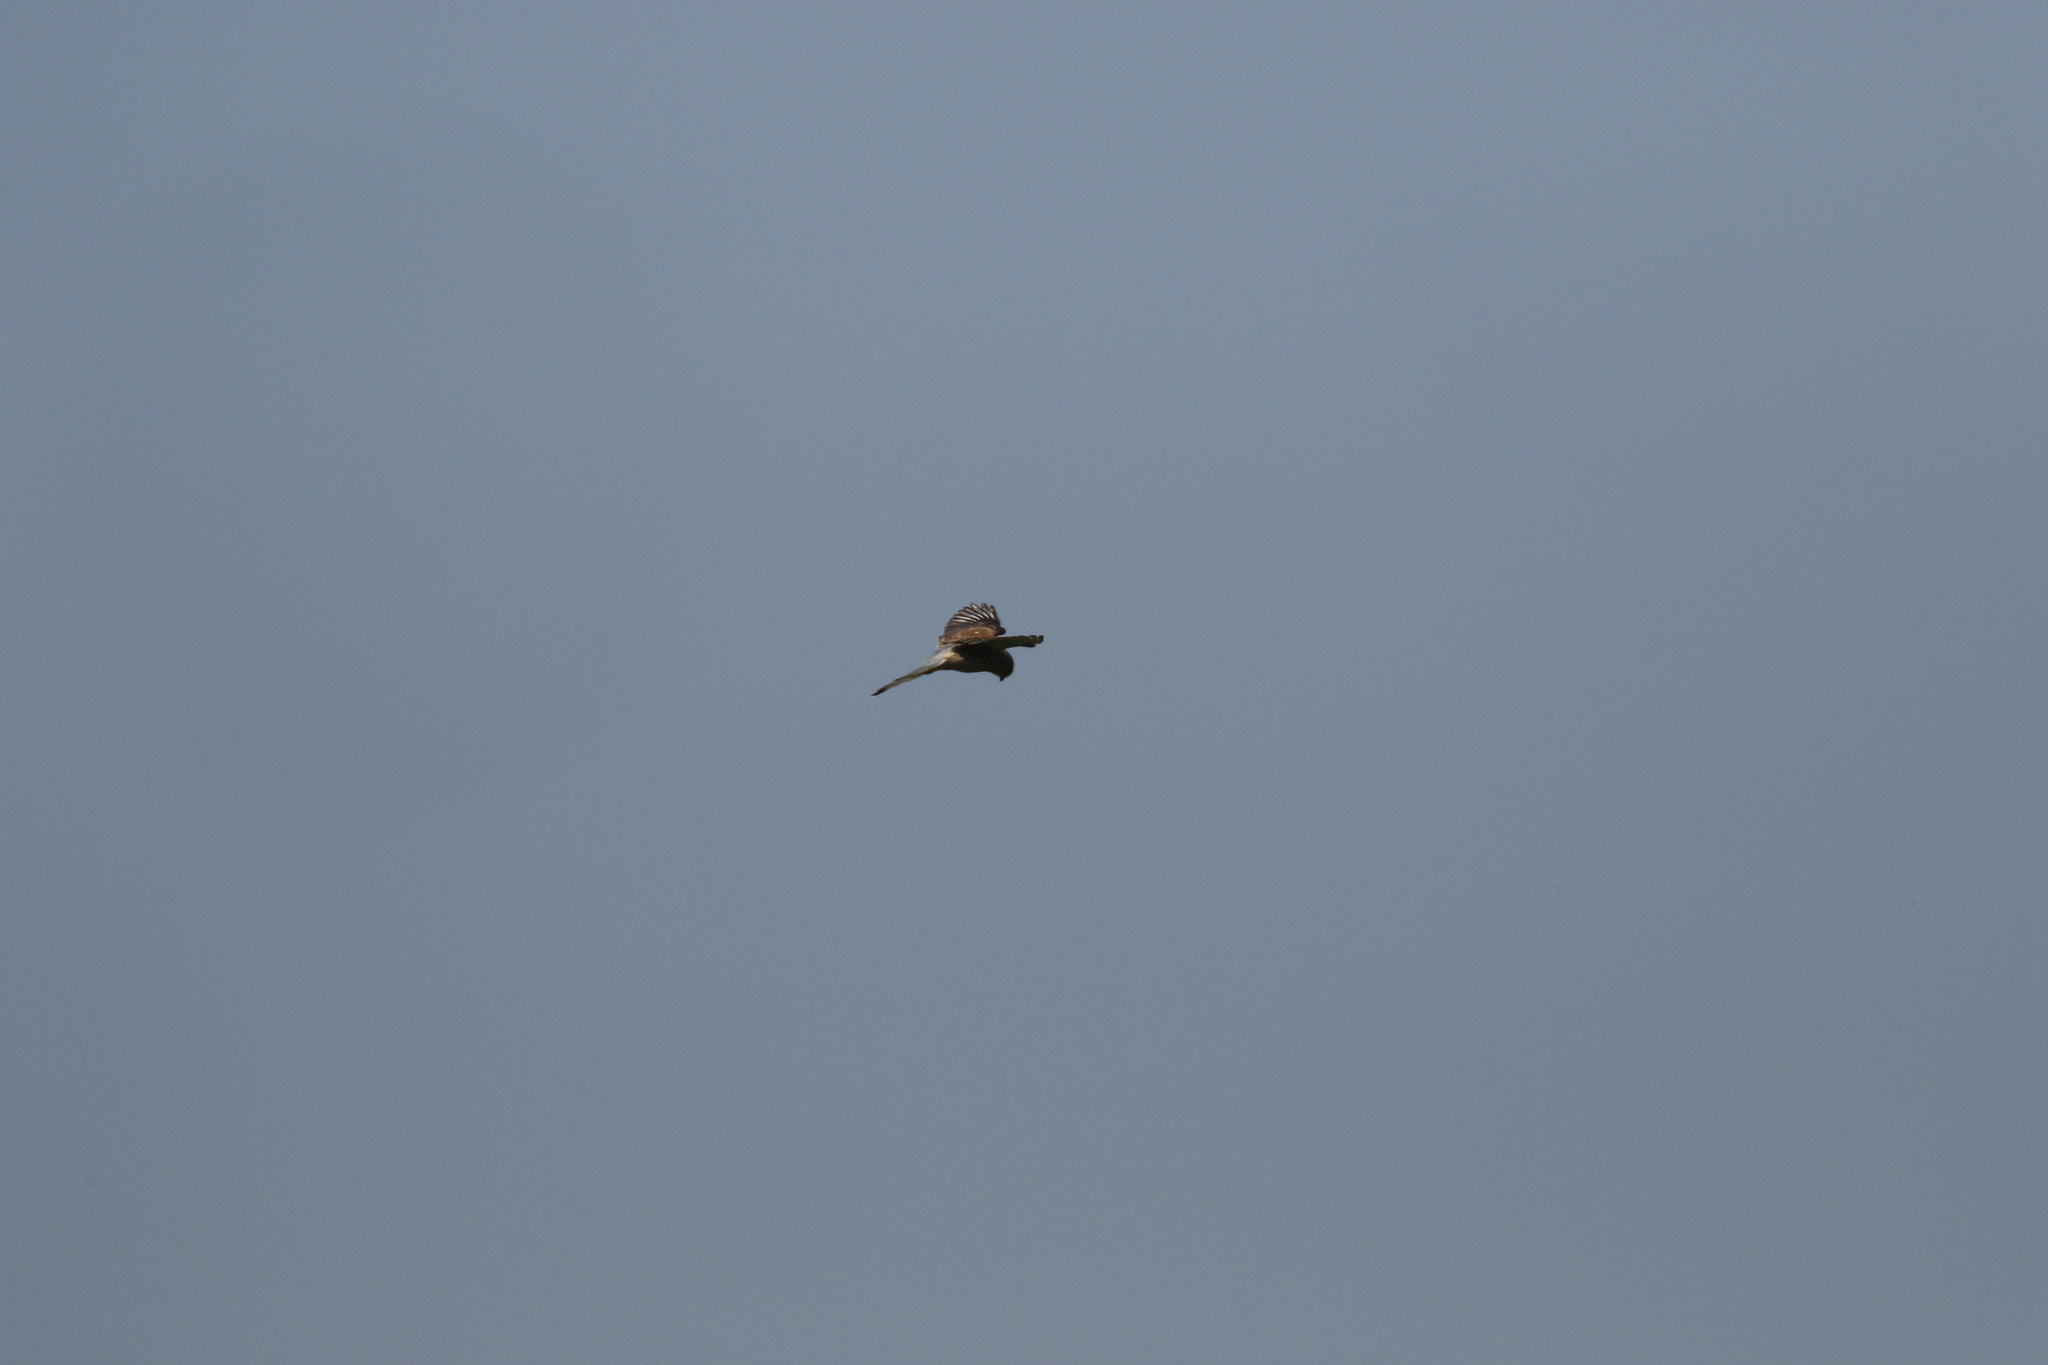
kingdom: Animalia
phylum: Chordata
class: Aves
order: Falconiformes
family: Falconidae
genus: Falco
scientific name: Falco tinnunculus
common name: Common kestrel
